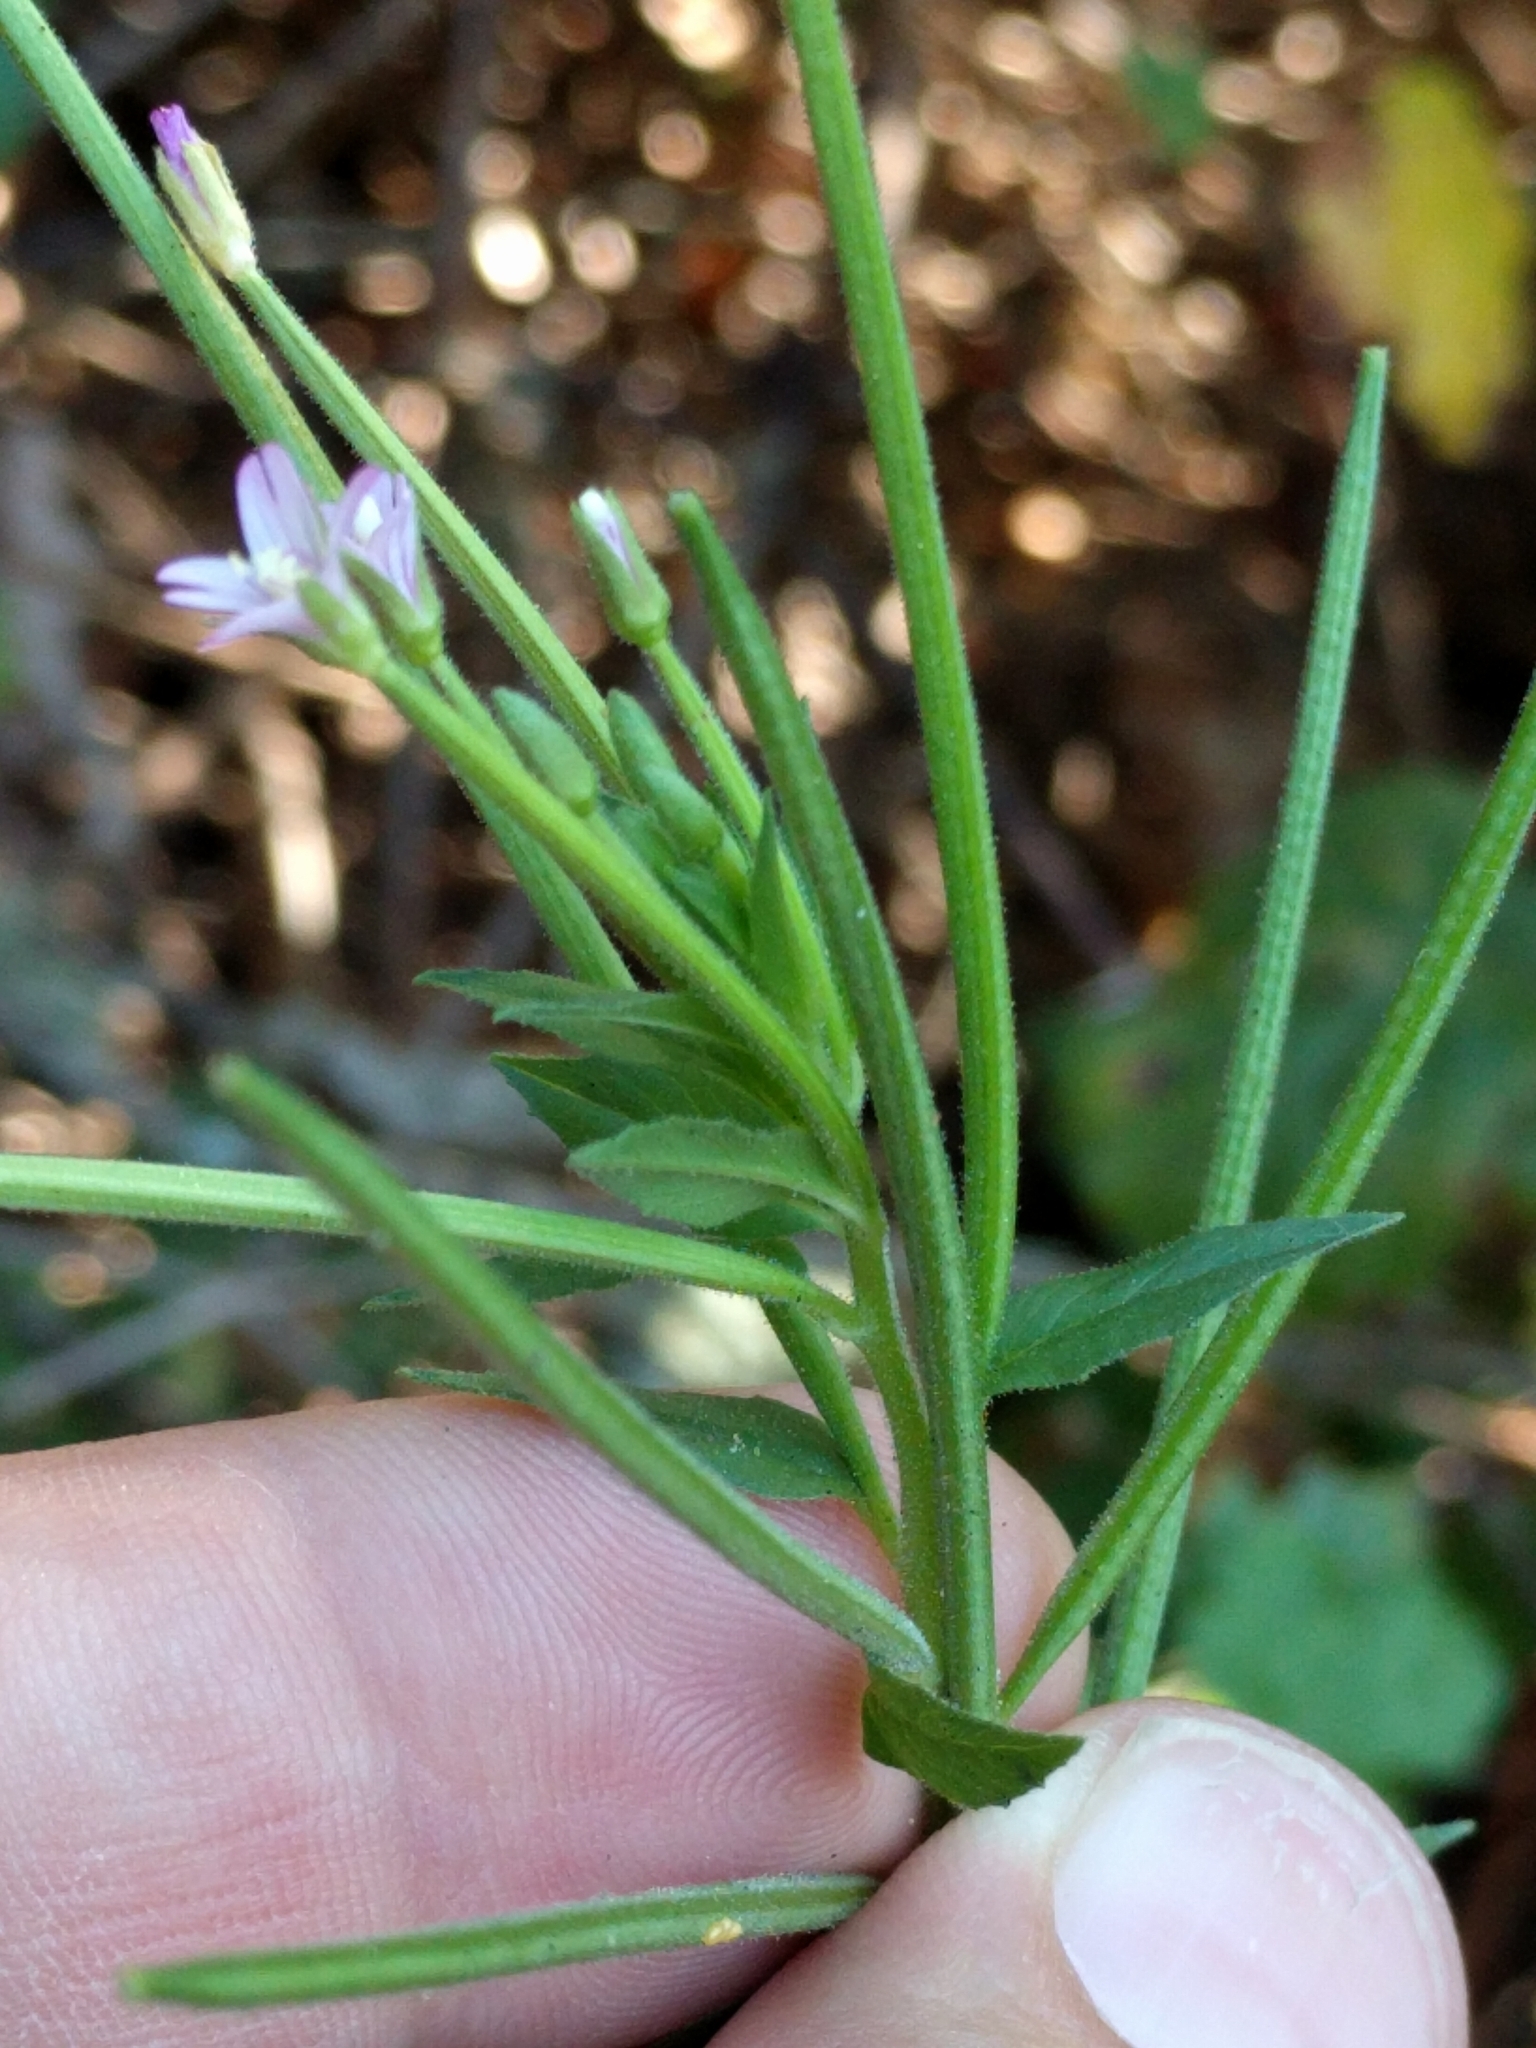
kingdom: Plantae
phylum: Tracheophyta
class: Magnoliopsida
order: Myrtales
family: Onagraceae
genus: Epilobium
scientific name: Epilobium ciliatum
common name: American willowherb
